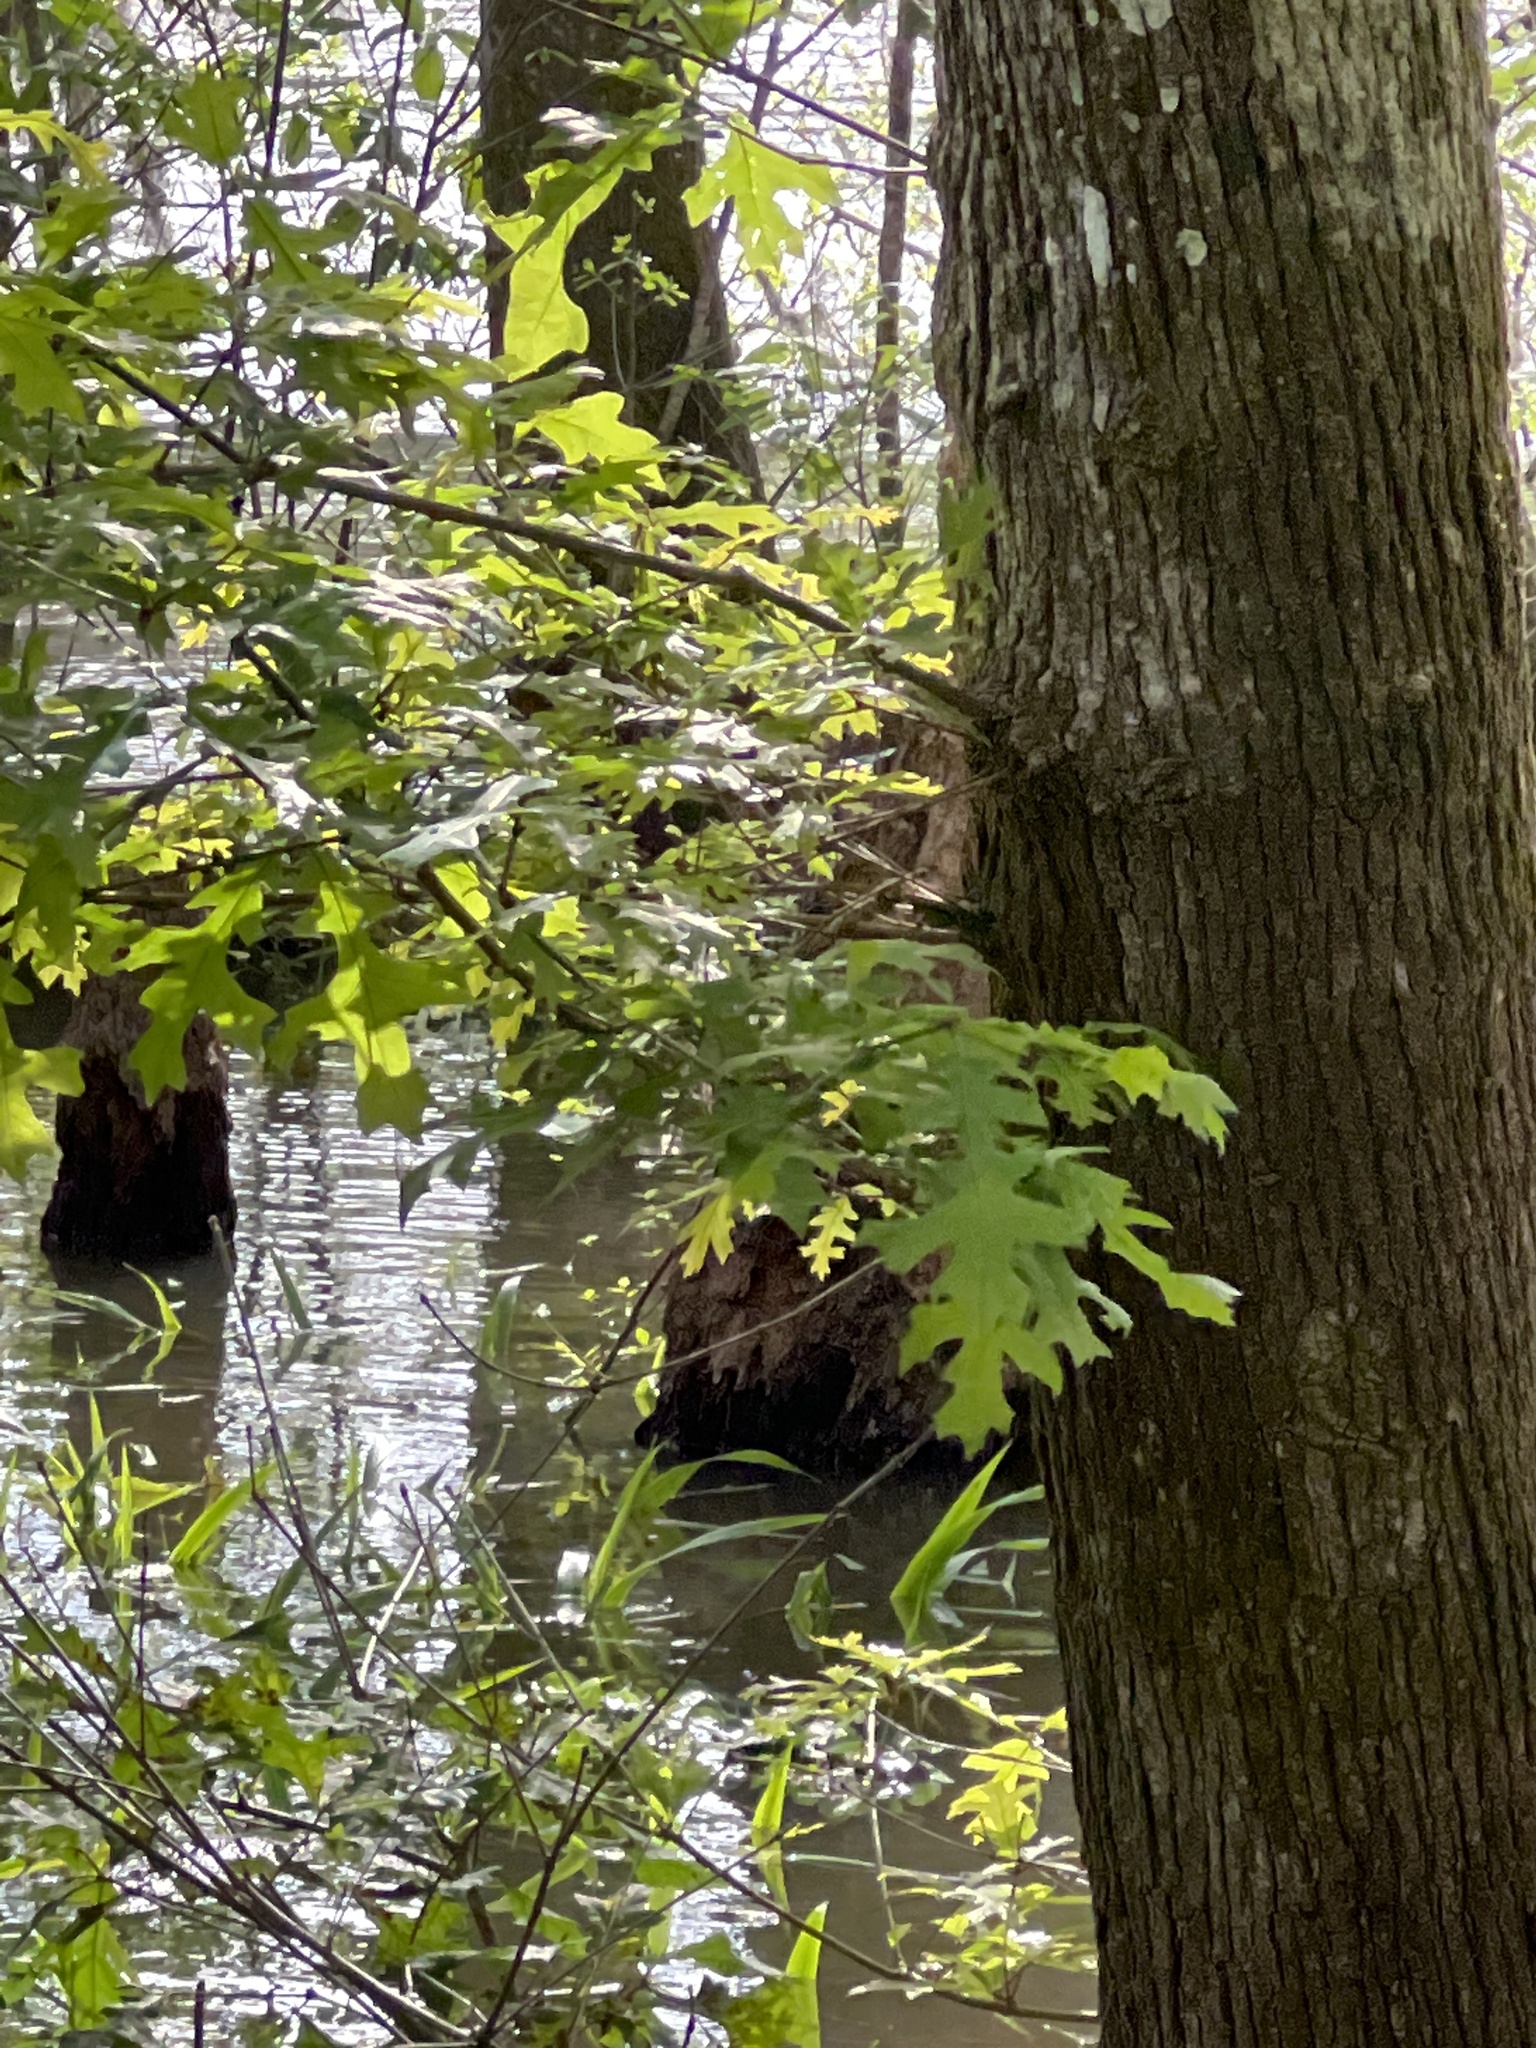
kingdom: Plantae
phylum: Tracheophyta
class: Magnoliopsida
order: Fagales
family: Fagaceae
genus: Quercus
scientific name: Quercus lyrata
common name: Overcup oak
